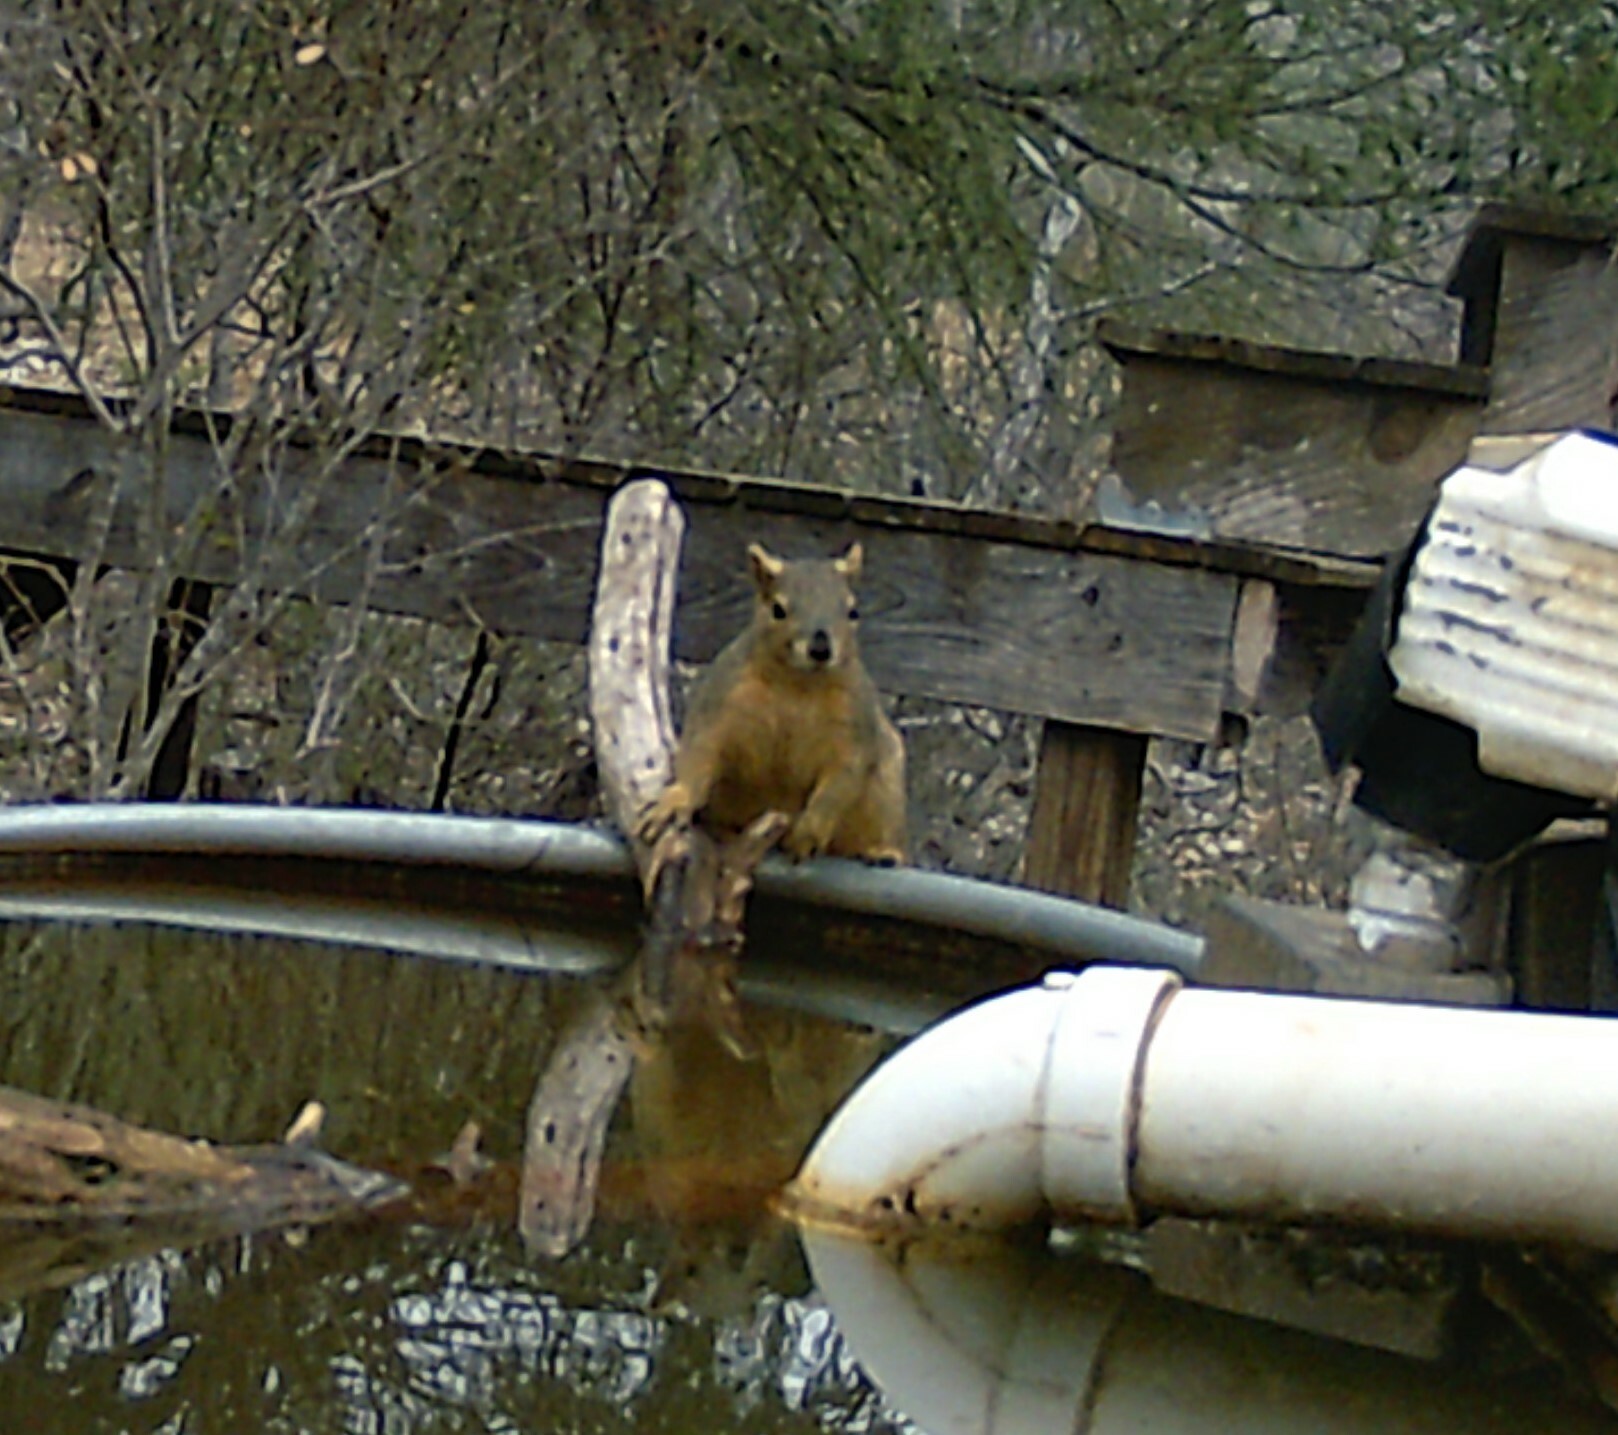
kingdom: Animalia
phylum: Chordata
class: Mammalia
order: Rodentia
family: Sciuridae
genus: Sciurus
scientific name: Sciurus niger
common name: Fox squirrel
